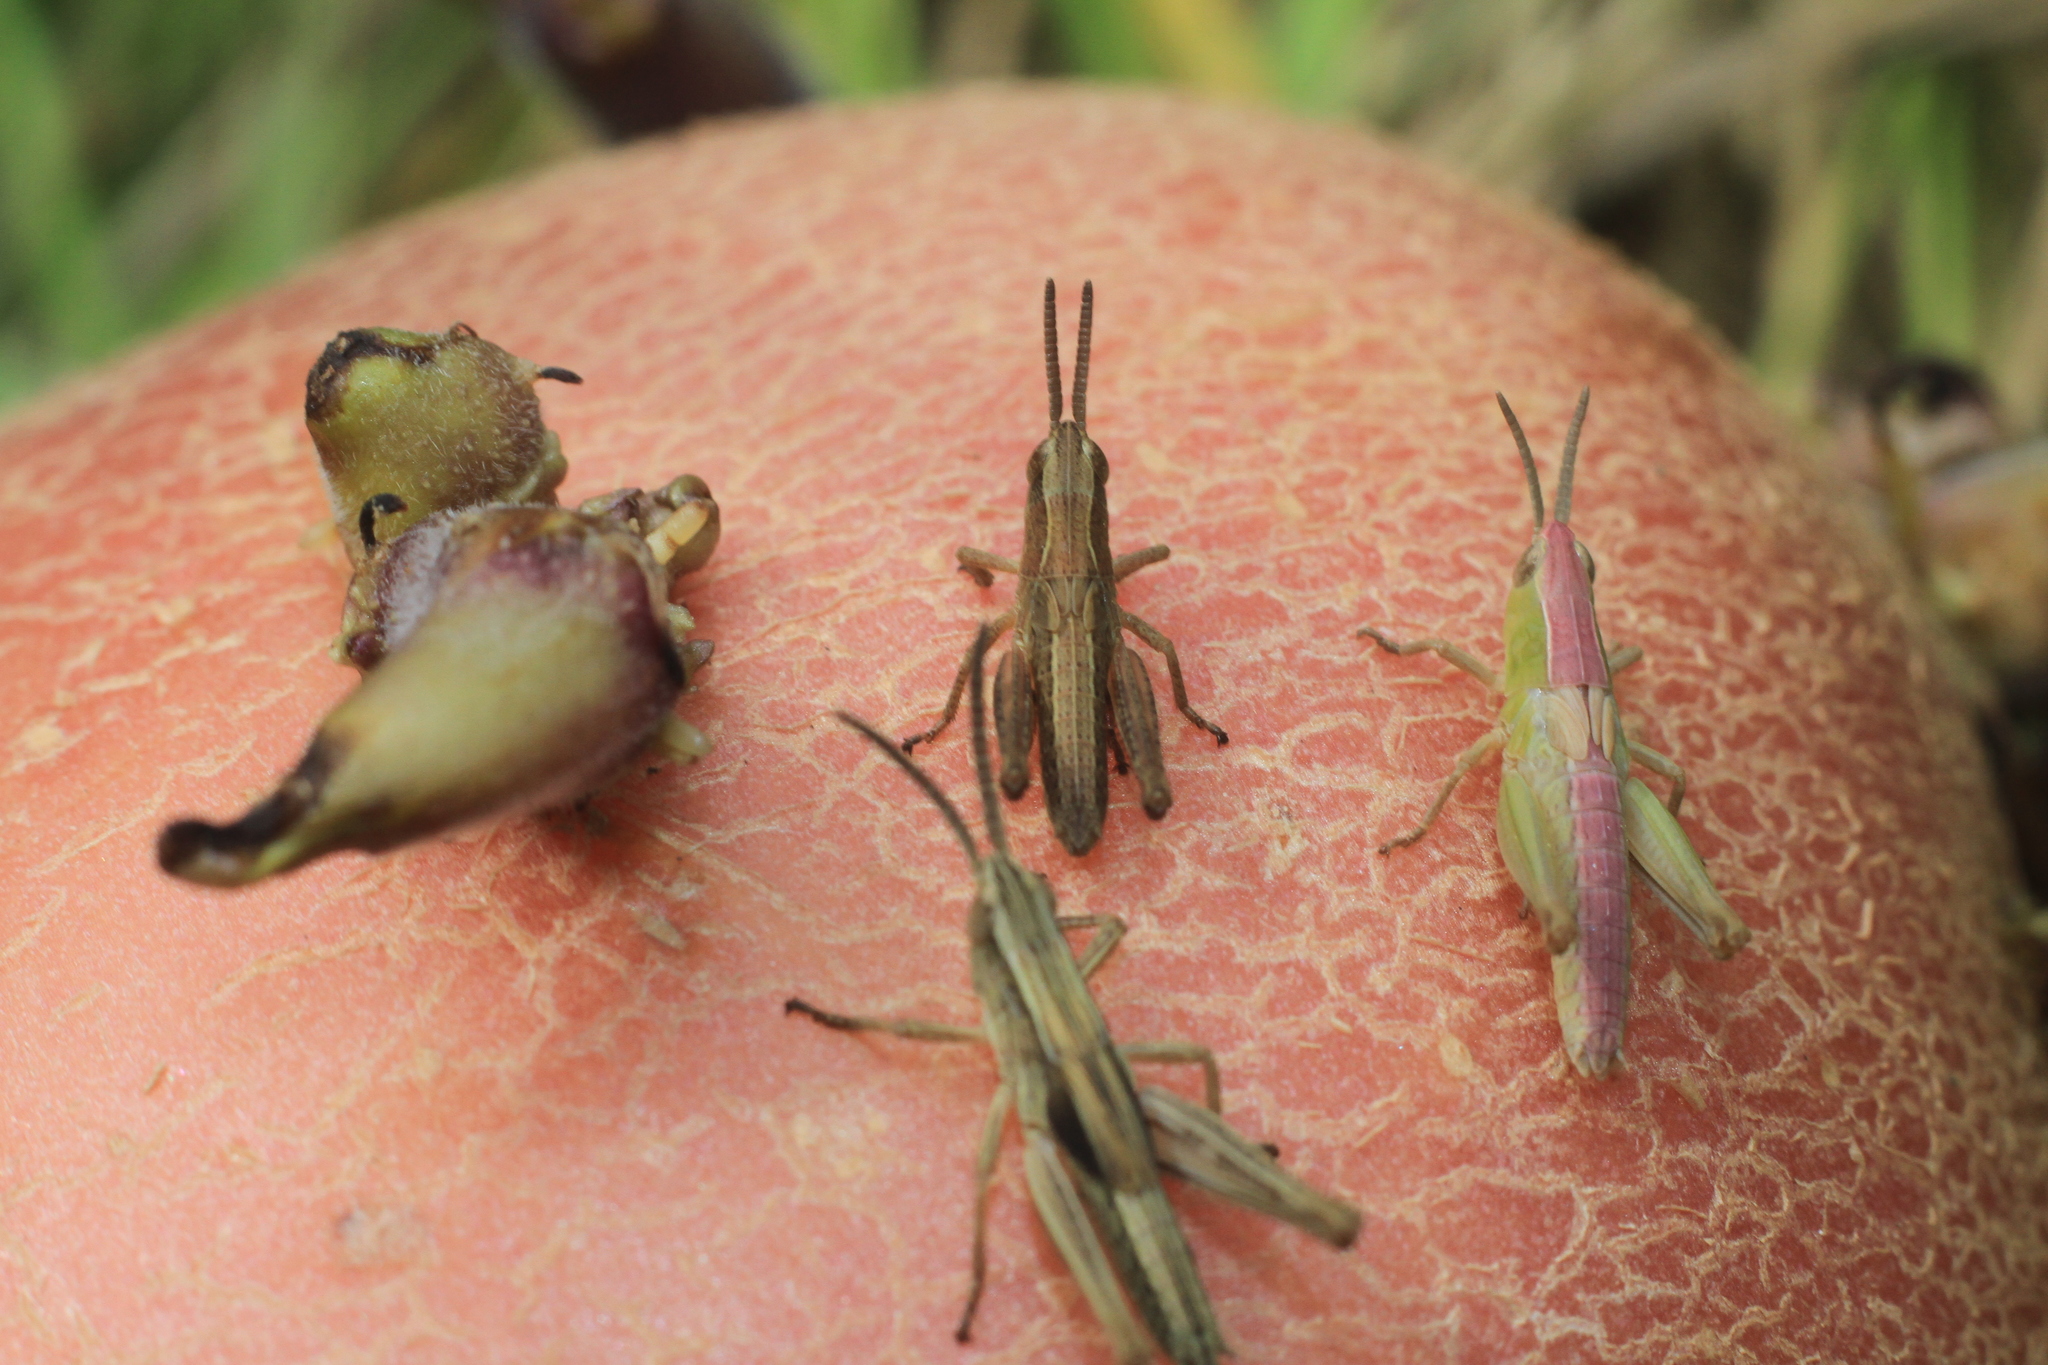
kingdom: Animalia
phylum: Arthropoda
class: Insecta
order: Orthoptera
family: Acrididae
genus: Pseudochorthippus
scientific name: Pseudochorthippus parallelus
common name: Meadow grasshopper
